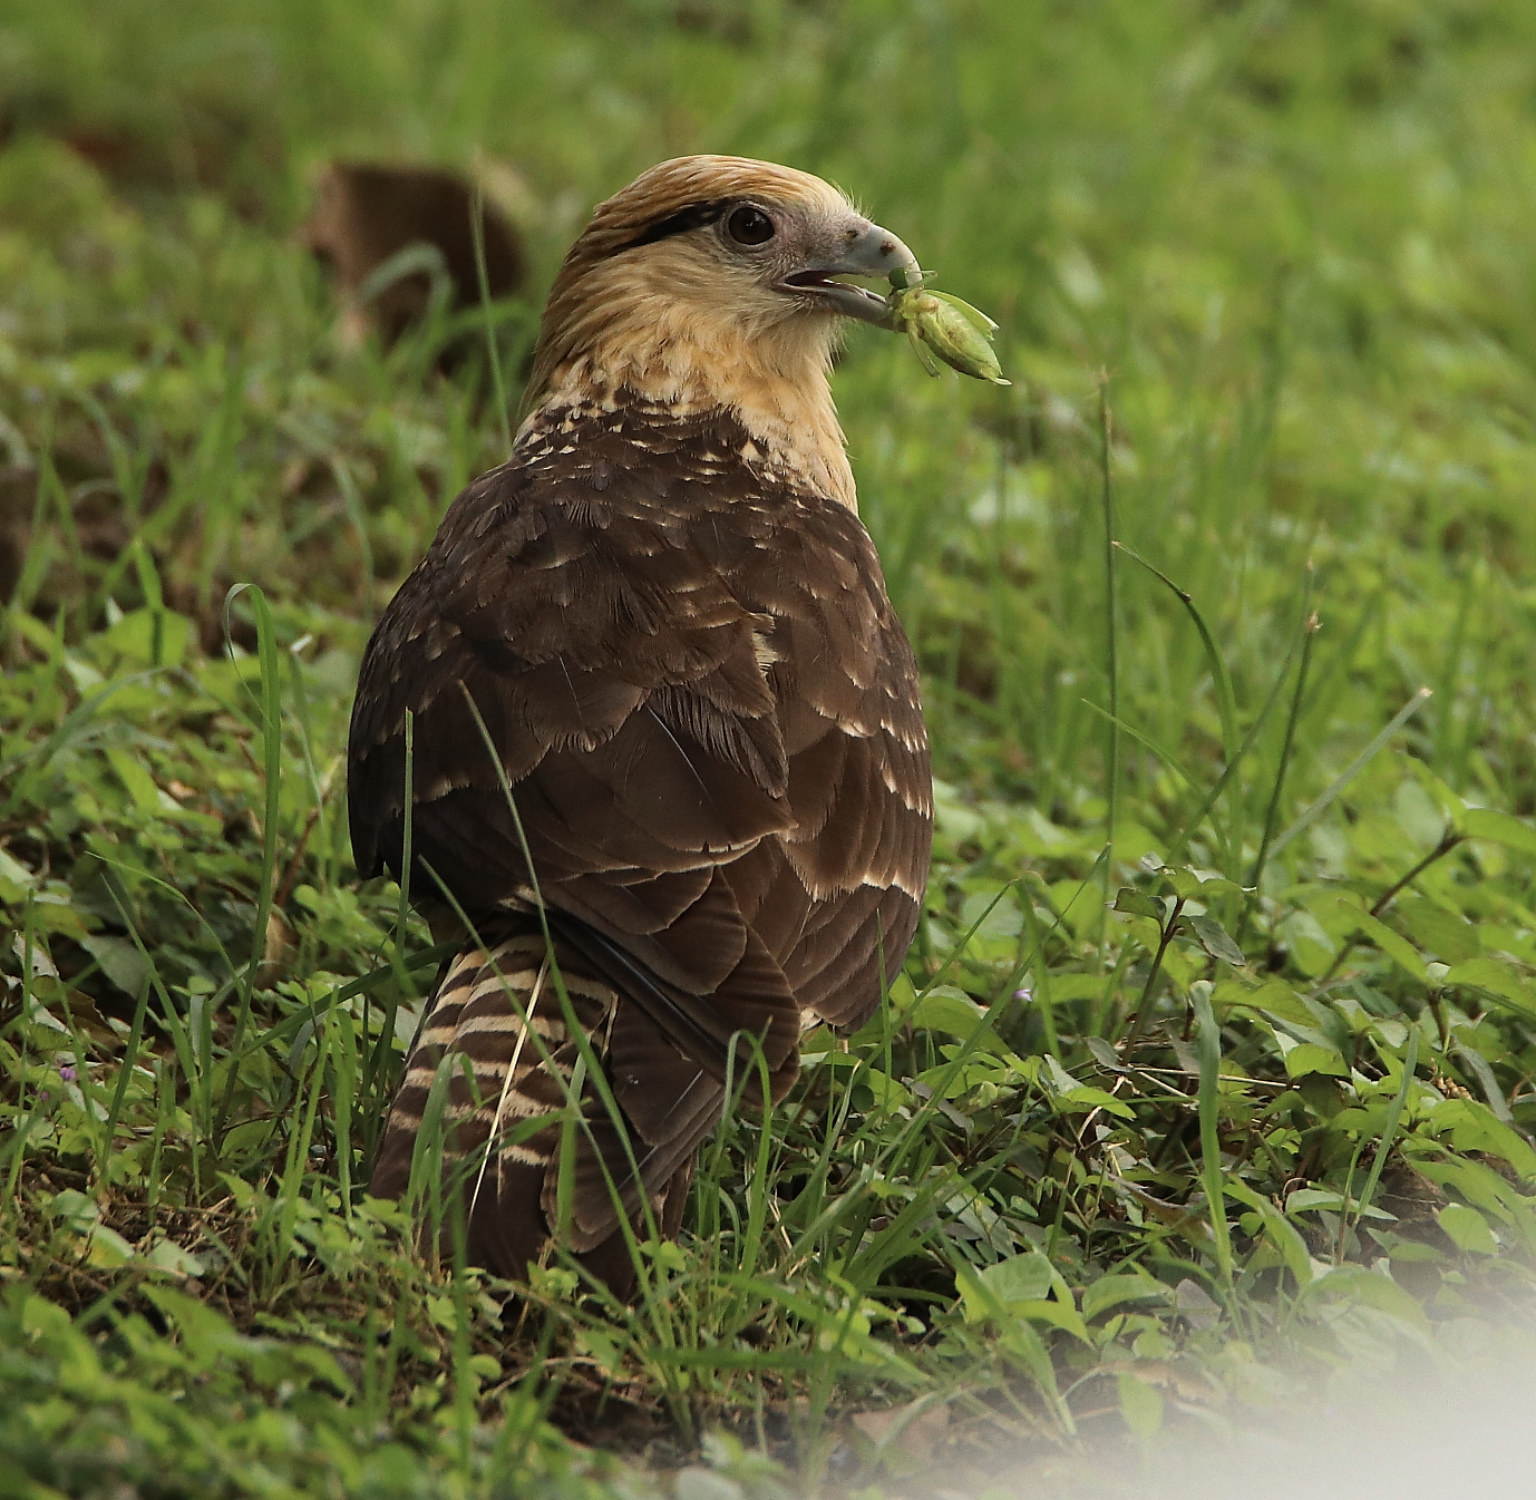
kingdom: Animalia
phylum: Chordata
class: Aves
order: Falconiformes
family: Falconidae
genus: Daptrius
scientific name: Daptrius
